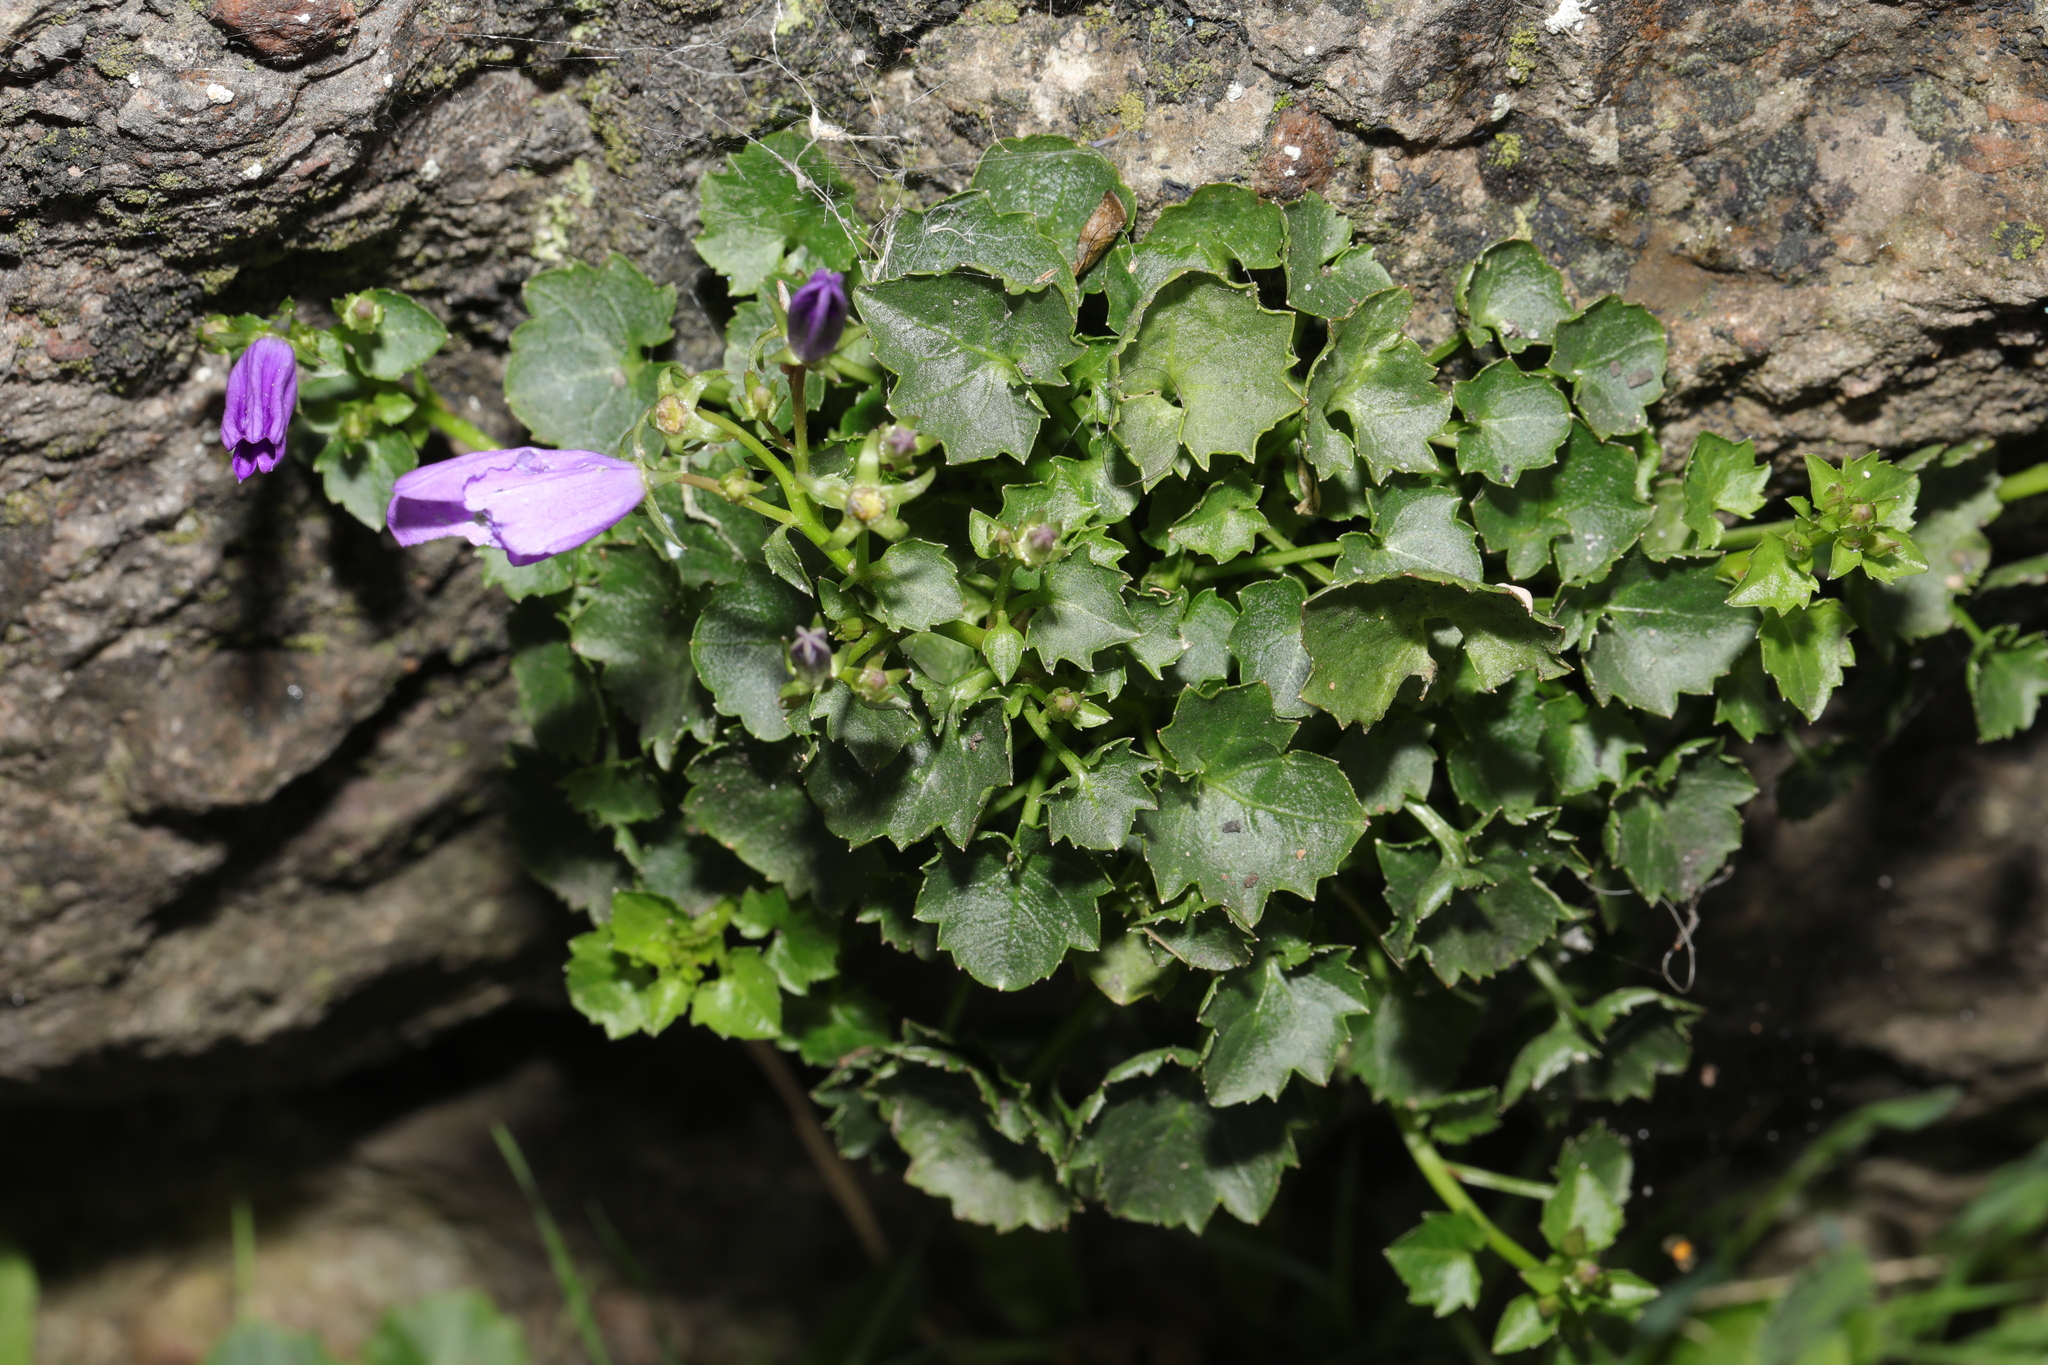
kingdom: Plantae
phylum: Tracheophyta
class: Magnoliopsida
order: Asterales
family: Campanulaceae
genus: Campanula
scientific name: Campanula portenschlagiana
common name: Adria bellflower
